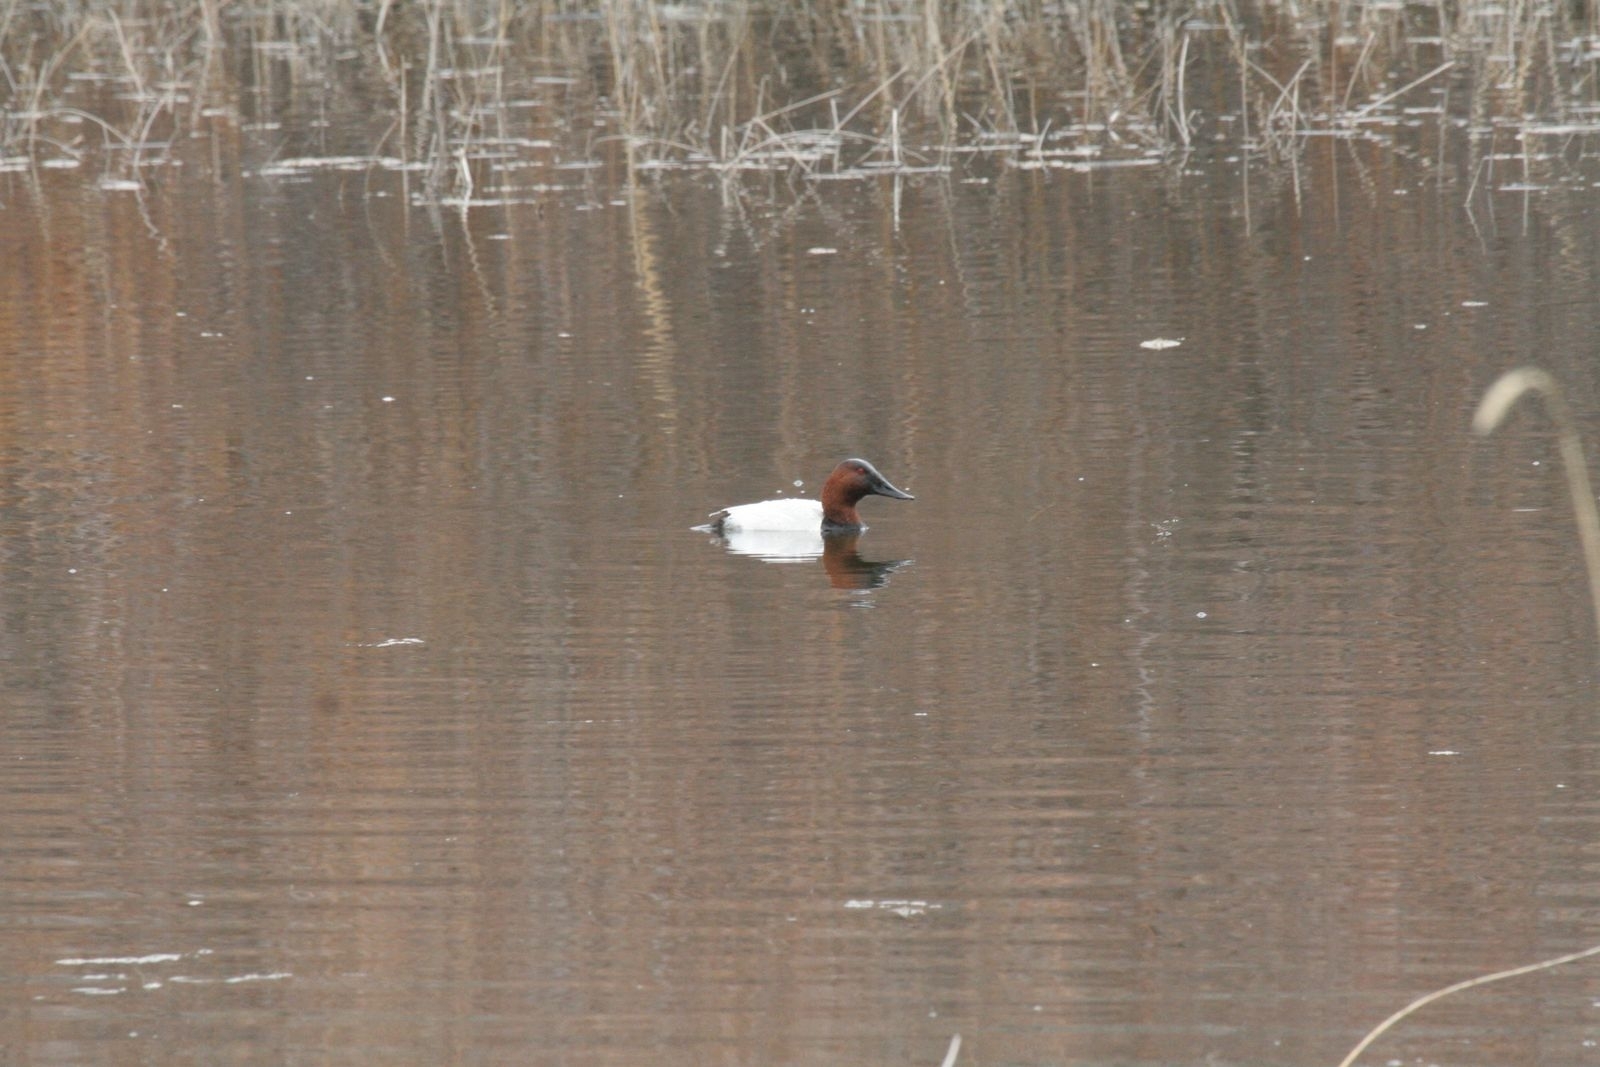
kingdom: Animalia
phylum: Chordata
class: Aves
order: Anseriformes
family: Anatidae
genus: Aythya
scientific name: Aythya valisineria
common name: Canvasback
